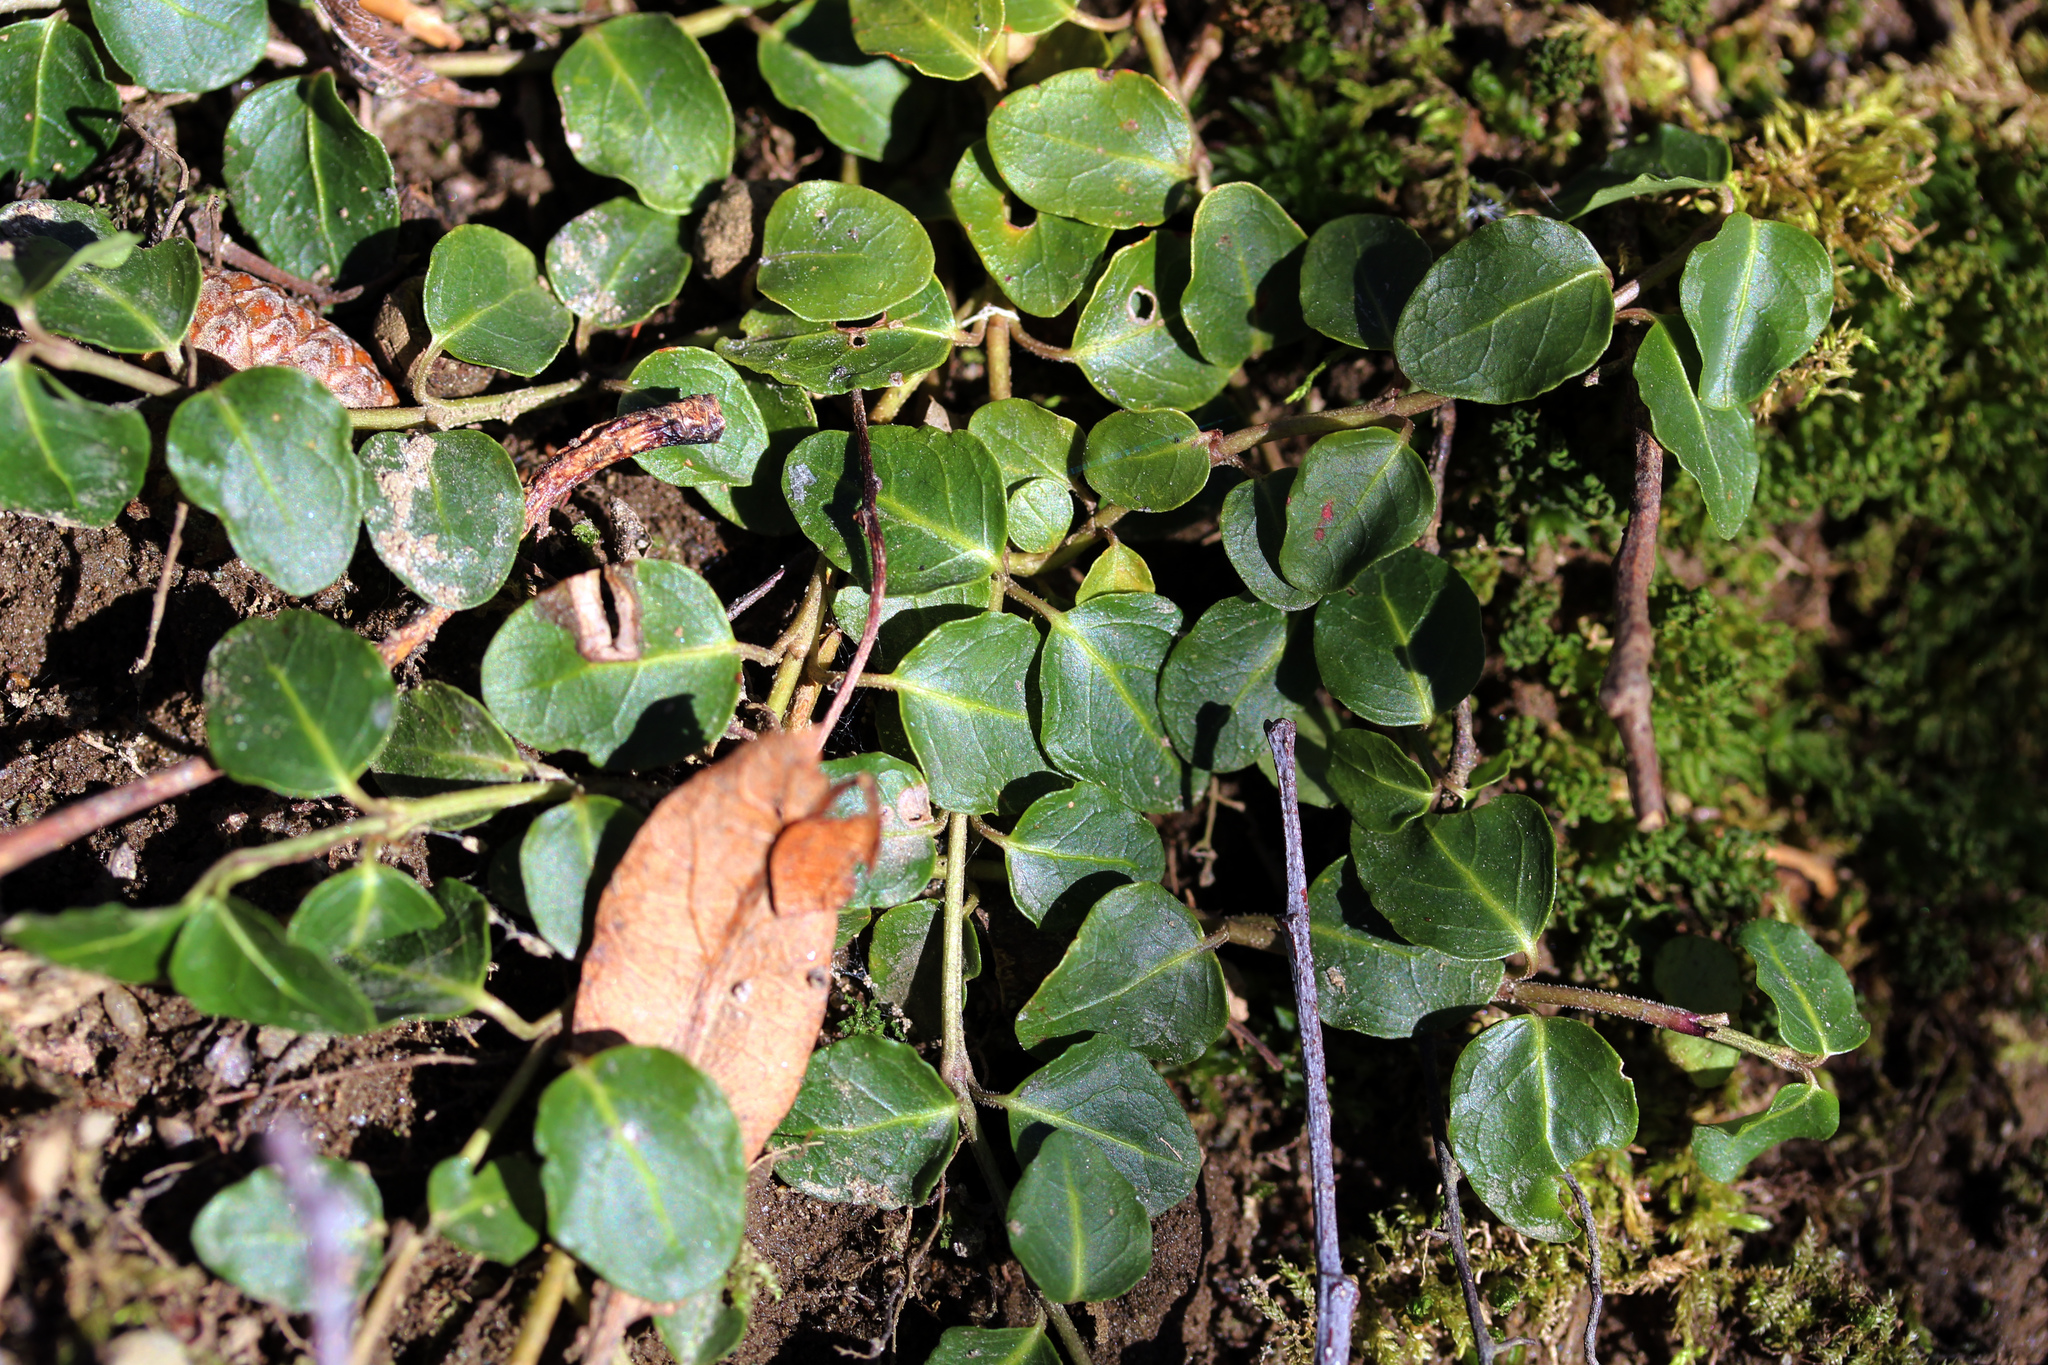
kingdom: Plantae
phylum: Tracheophyta
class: Magnoliopsida
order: Gentianales
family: Rubiaceae
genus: Mitchella
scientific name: Mitchella repens
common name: Partridge-berry
